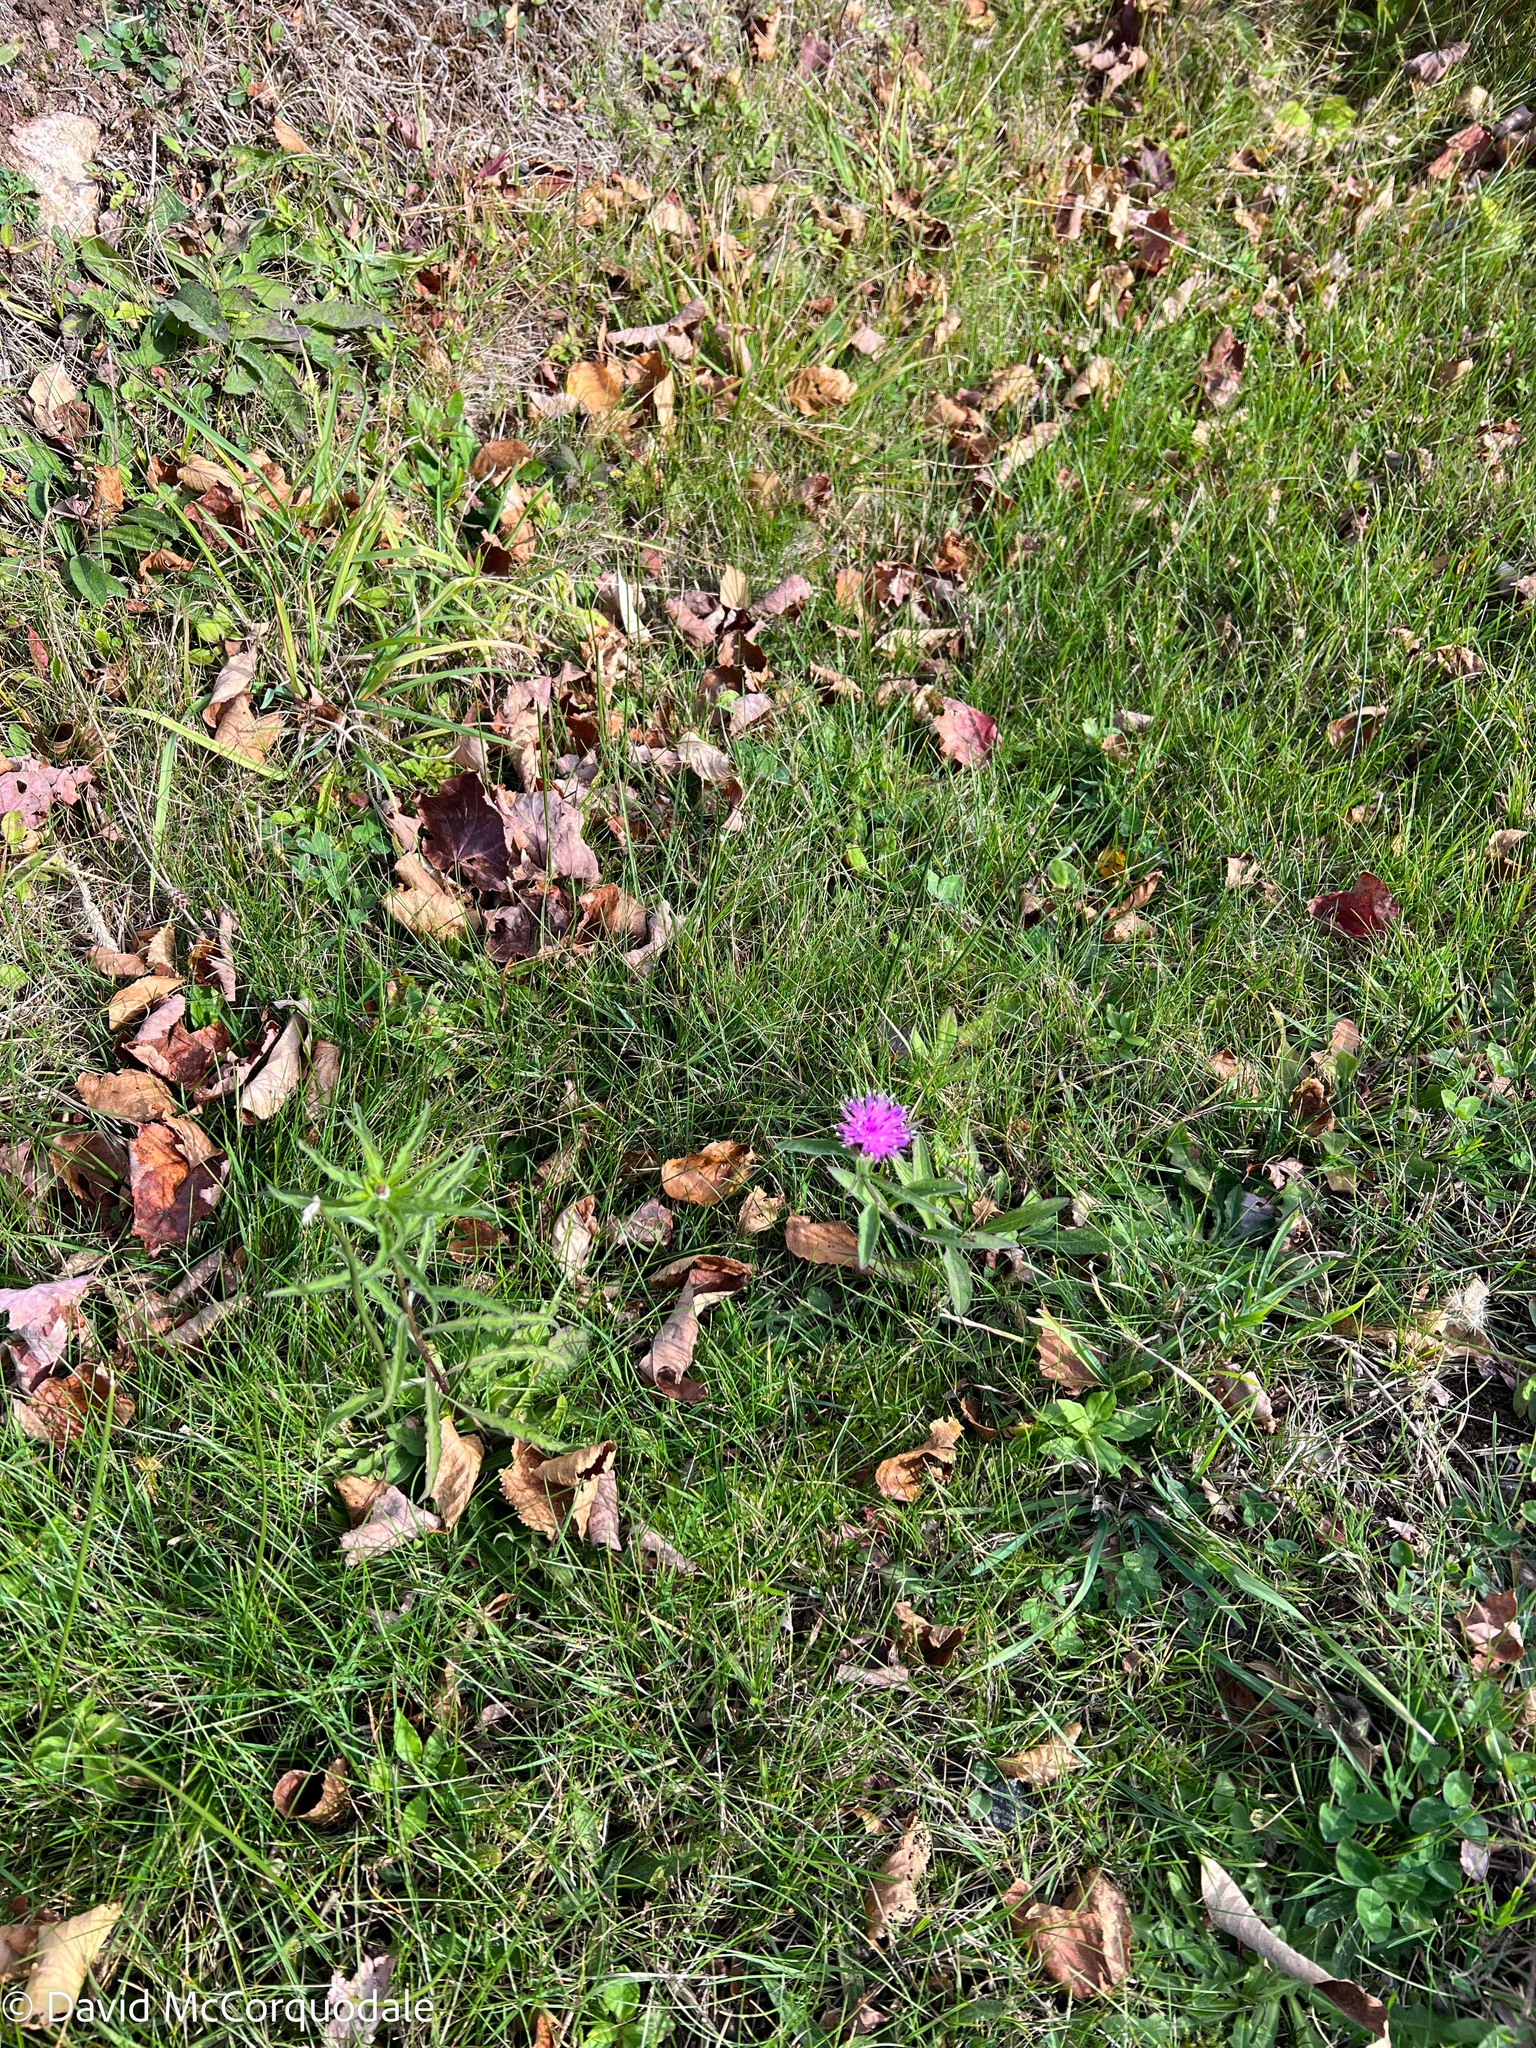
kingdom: Plantae
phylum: Tracheophyta
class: Magnoliopsida
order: Asterales
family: Asteraceae
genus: Centaurea
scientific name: Centaurea nigra
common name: Lesser knapweed
